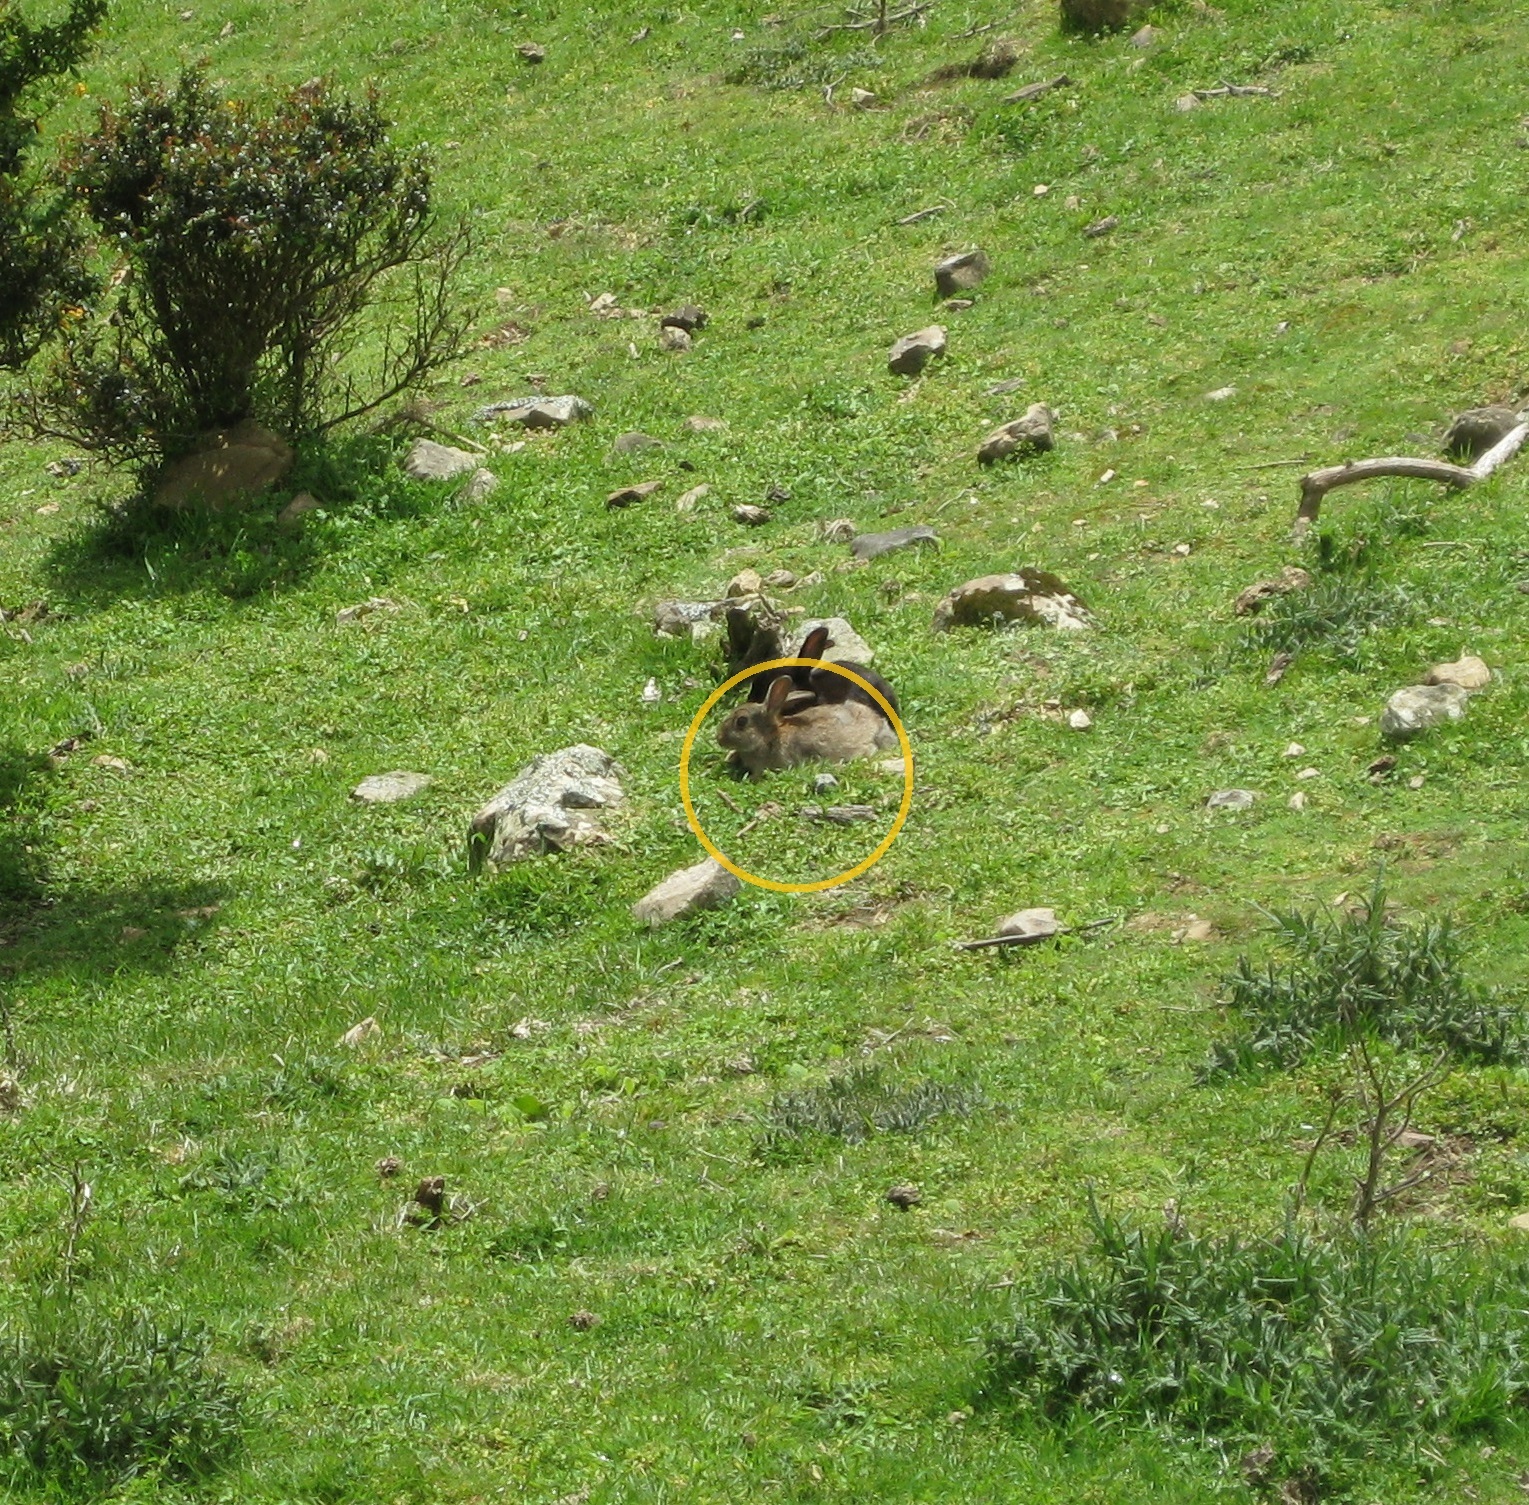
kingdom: Animalia
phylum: Chordata
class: Mammalia
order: Lagomorpha
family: Leporidae
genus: Oryctolagus
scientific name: Oryctolagus cuniculus
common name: European rabbit
